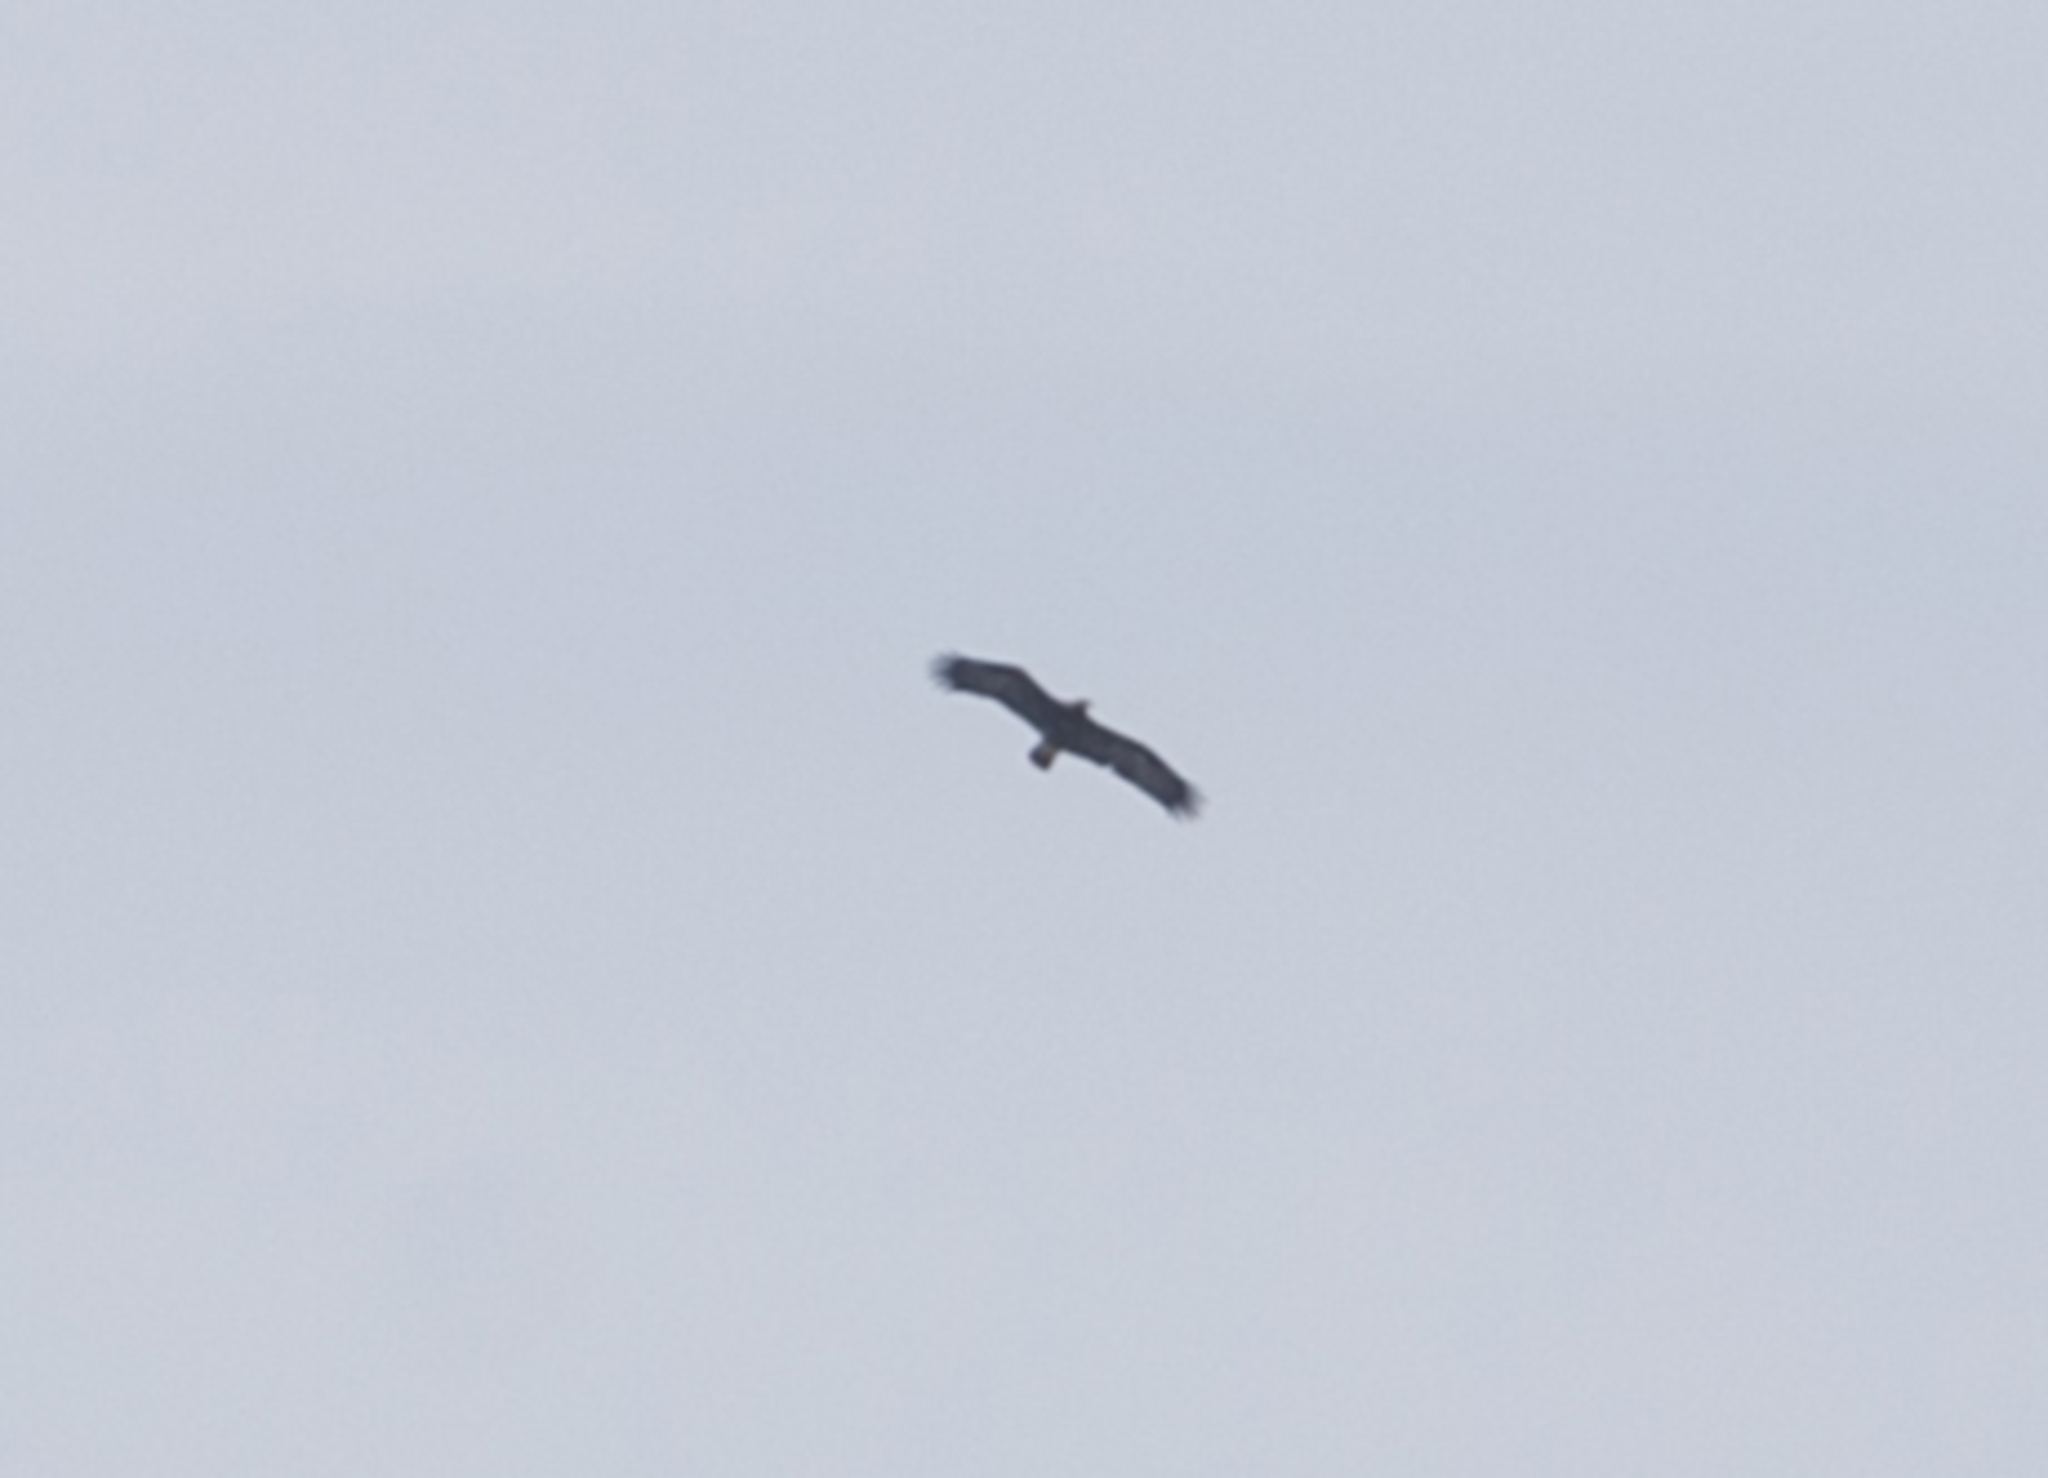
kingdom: Animalia
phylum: Chordata
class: Aves
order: Accipitriformes
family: Accipitridae
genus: Aquila
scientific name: Aquila heliaca
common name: Eastern imperial eagle
